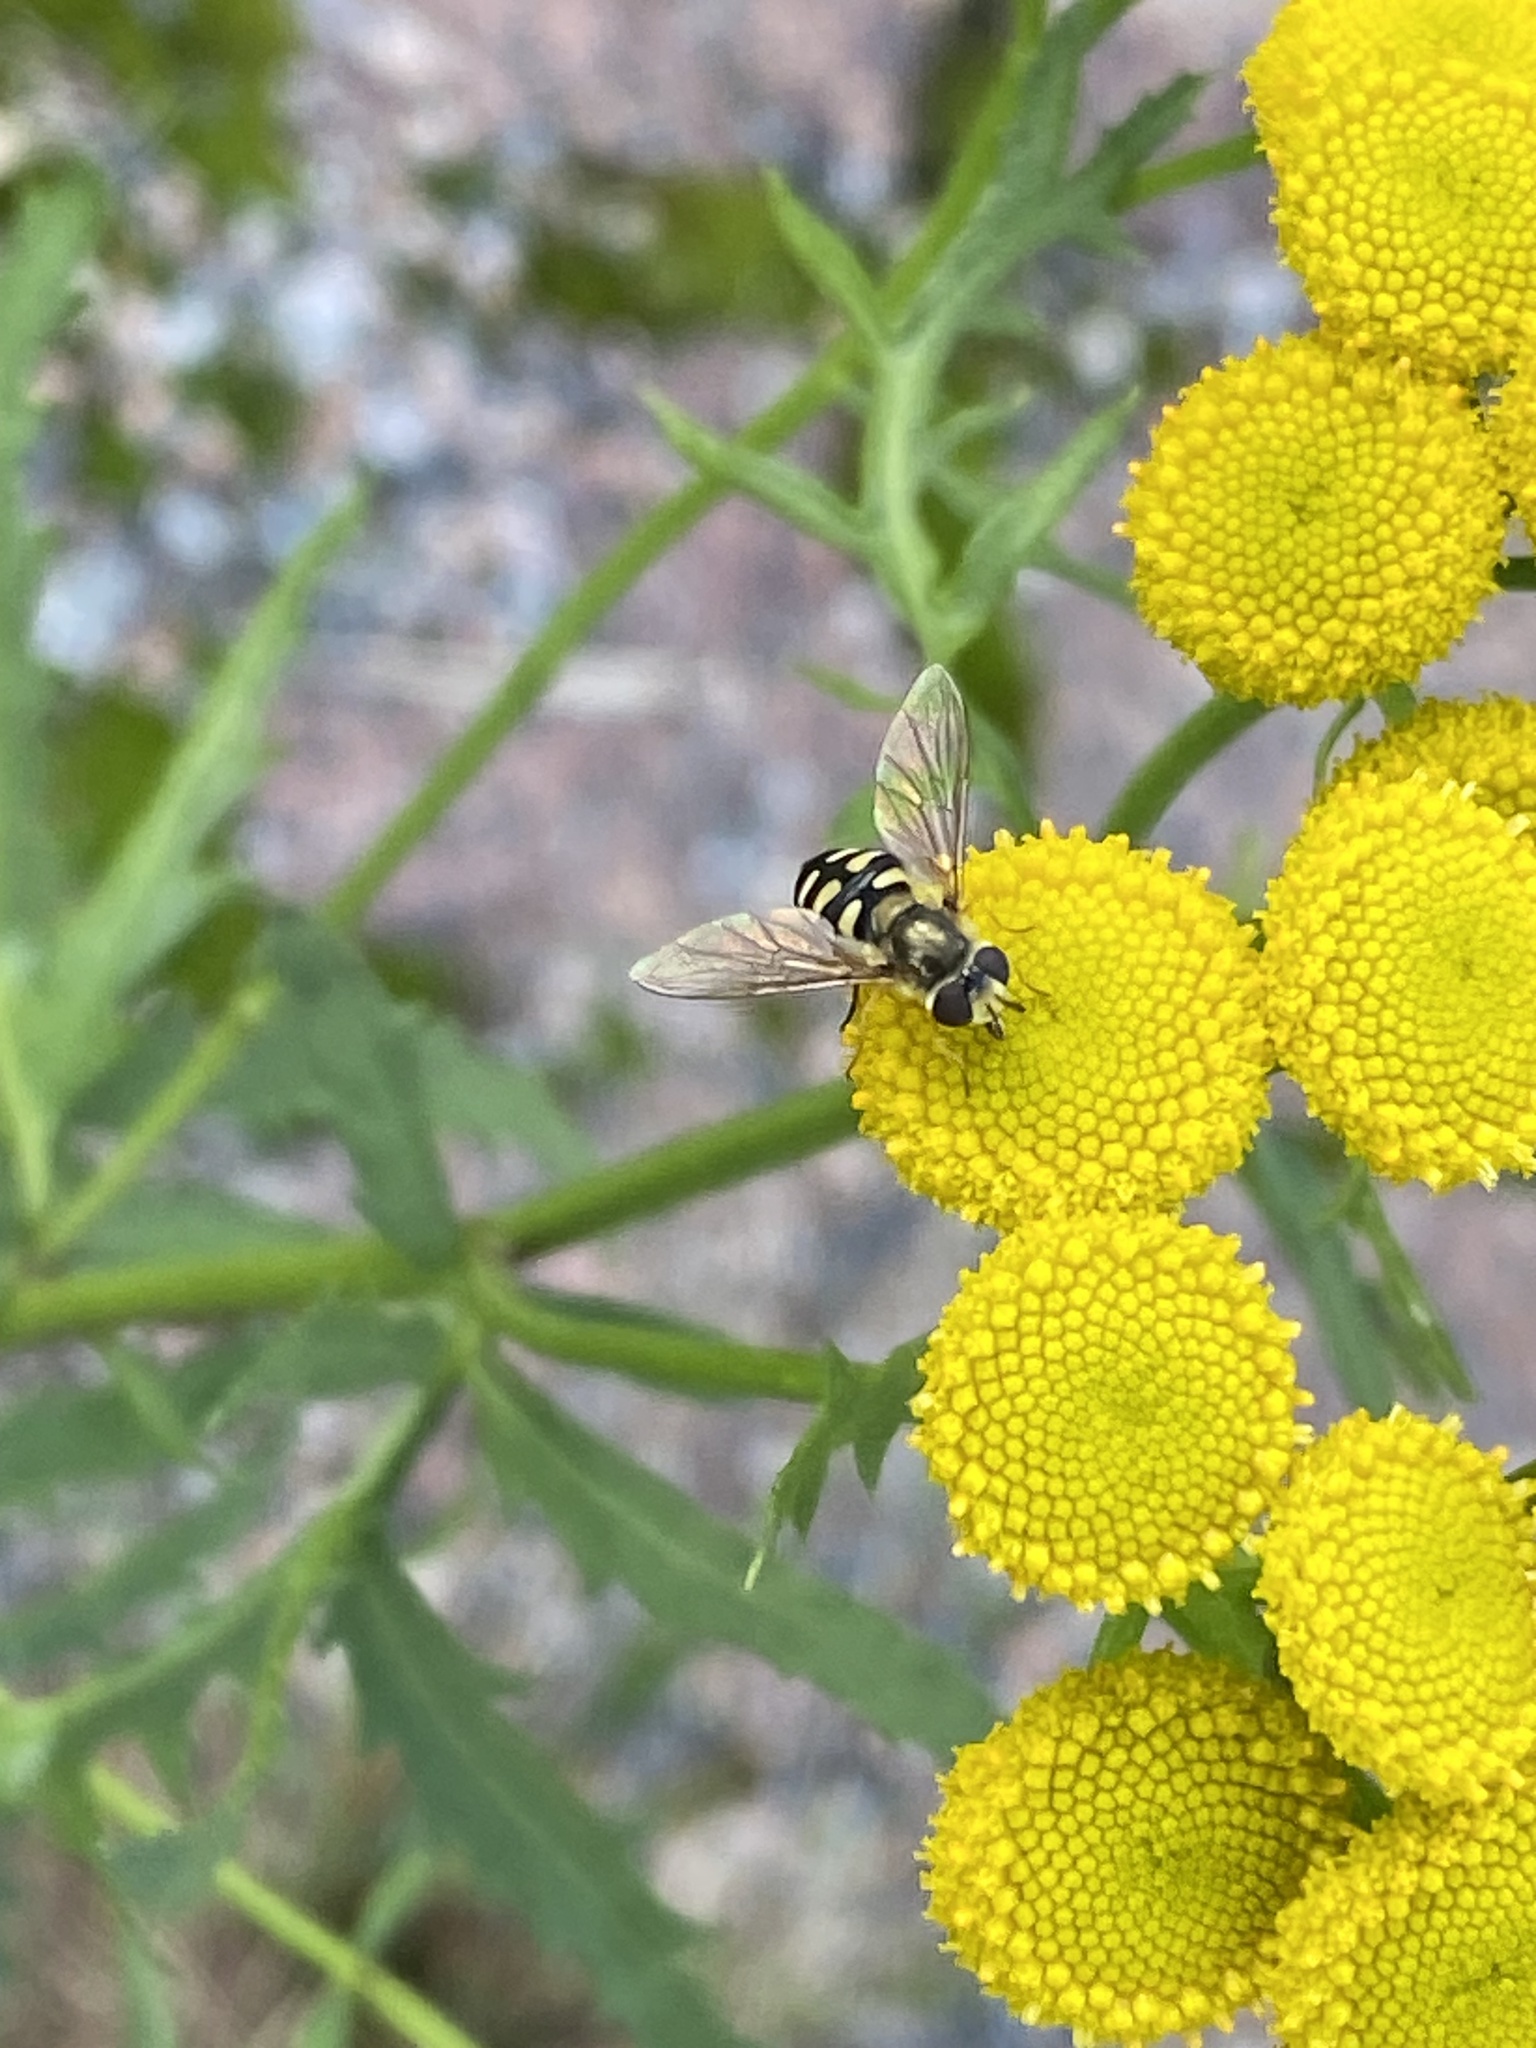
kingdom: Animalia
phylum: Arthropoda
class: Insecta
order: Diptera
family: Syrphidae
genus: Eupeodes
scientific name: Eupeodes corollae
